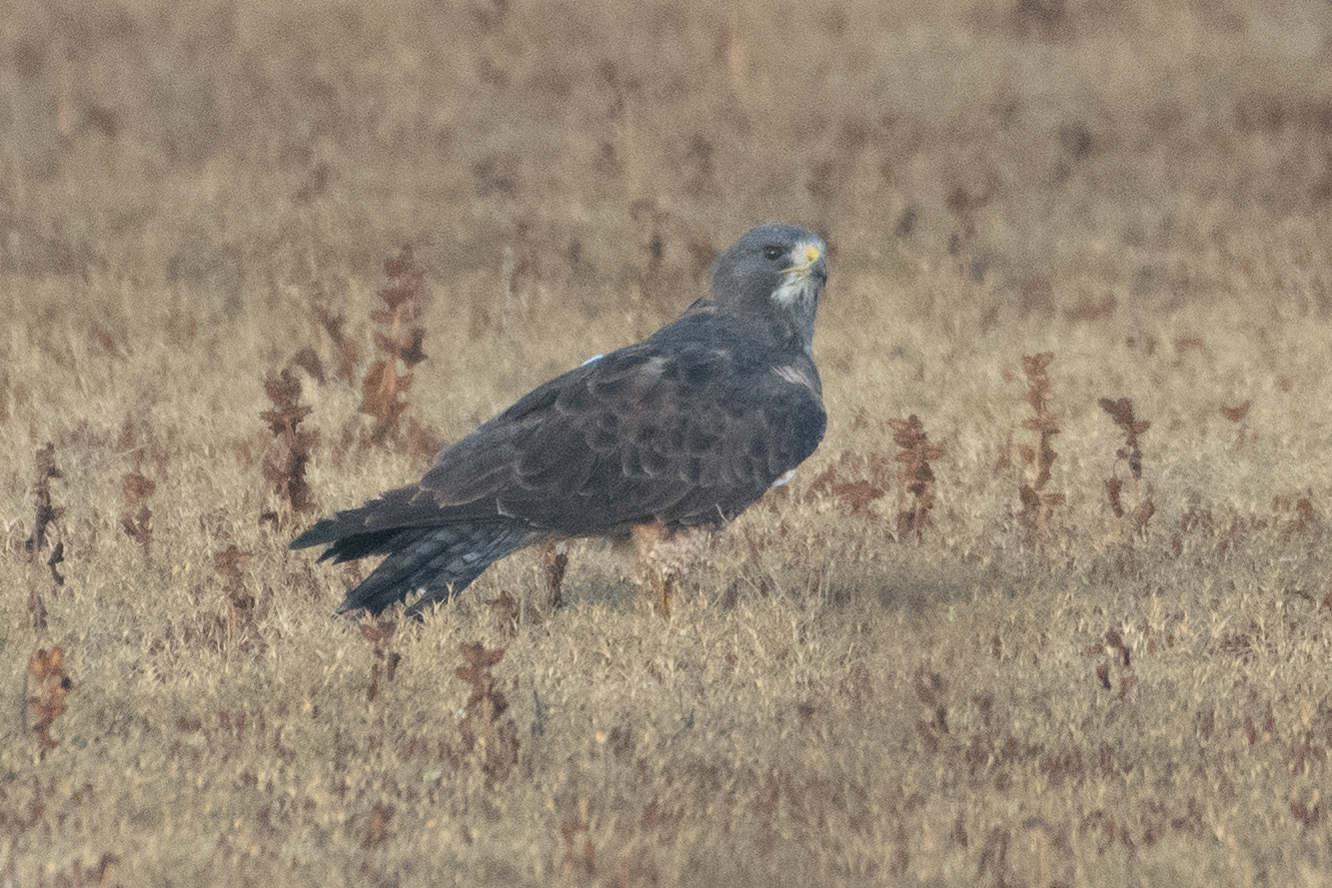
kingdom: Animalia
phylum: Chordata
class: Aves
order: Accipitriformes
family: Accipitridae
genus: Buteo
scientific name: Buteo swainsoni
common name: Swainson's hawk
